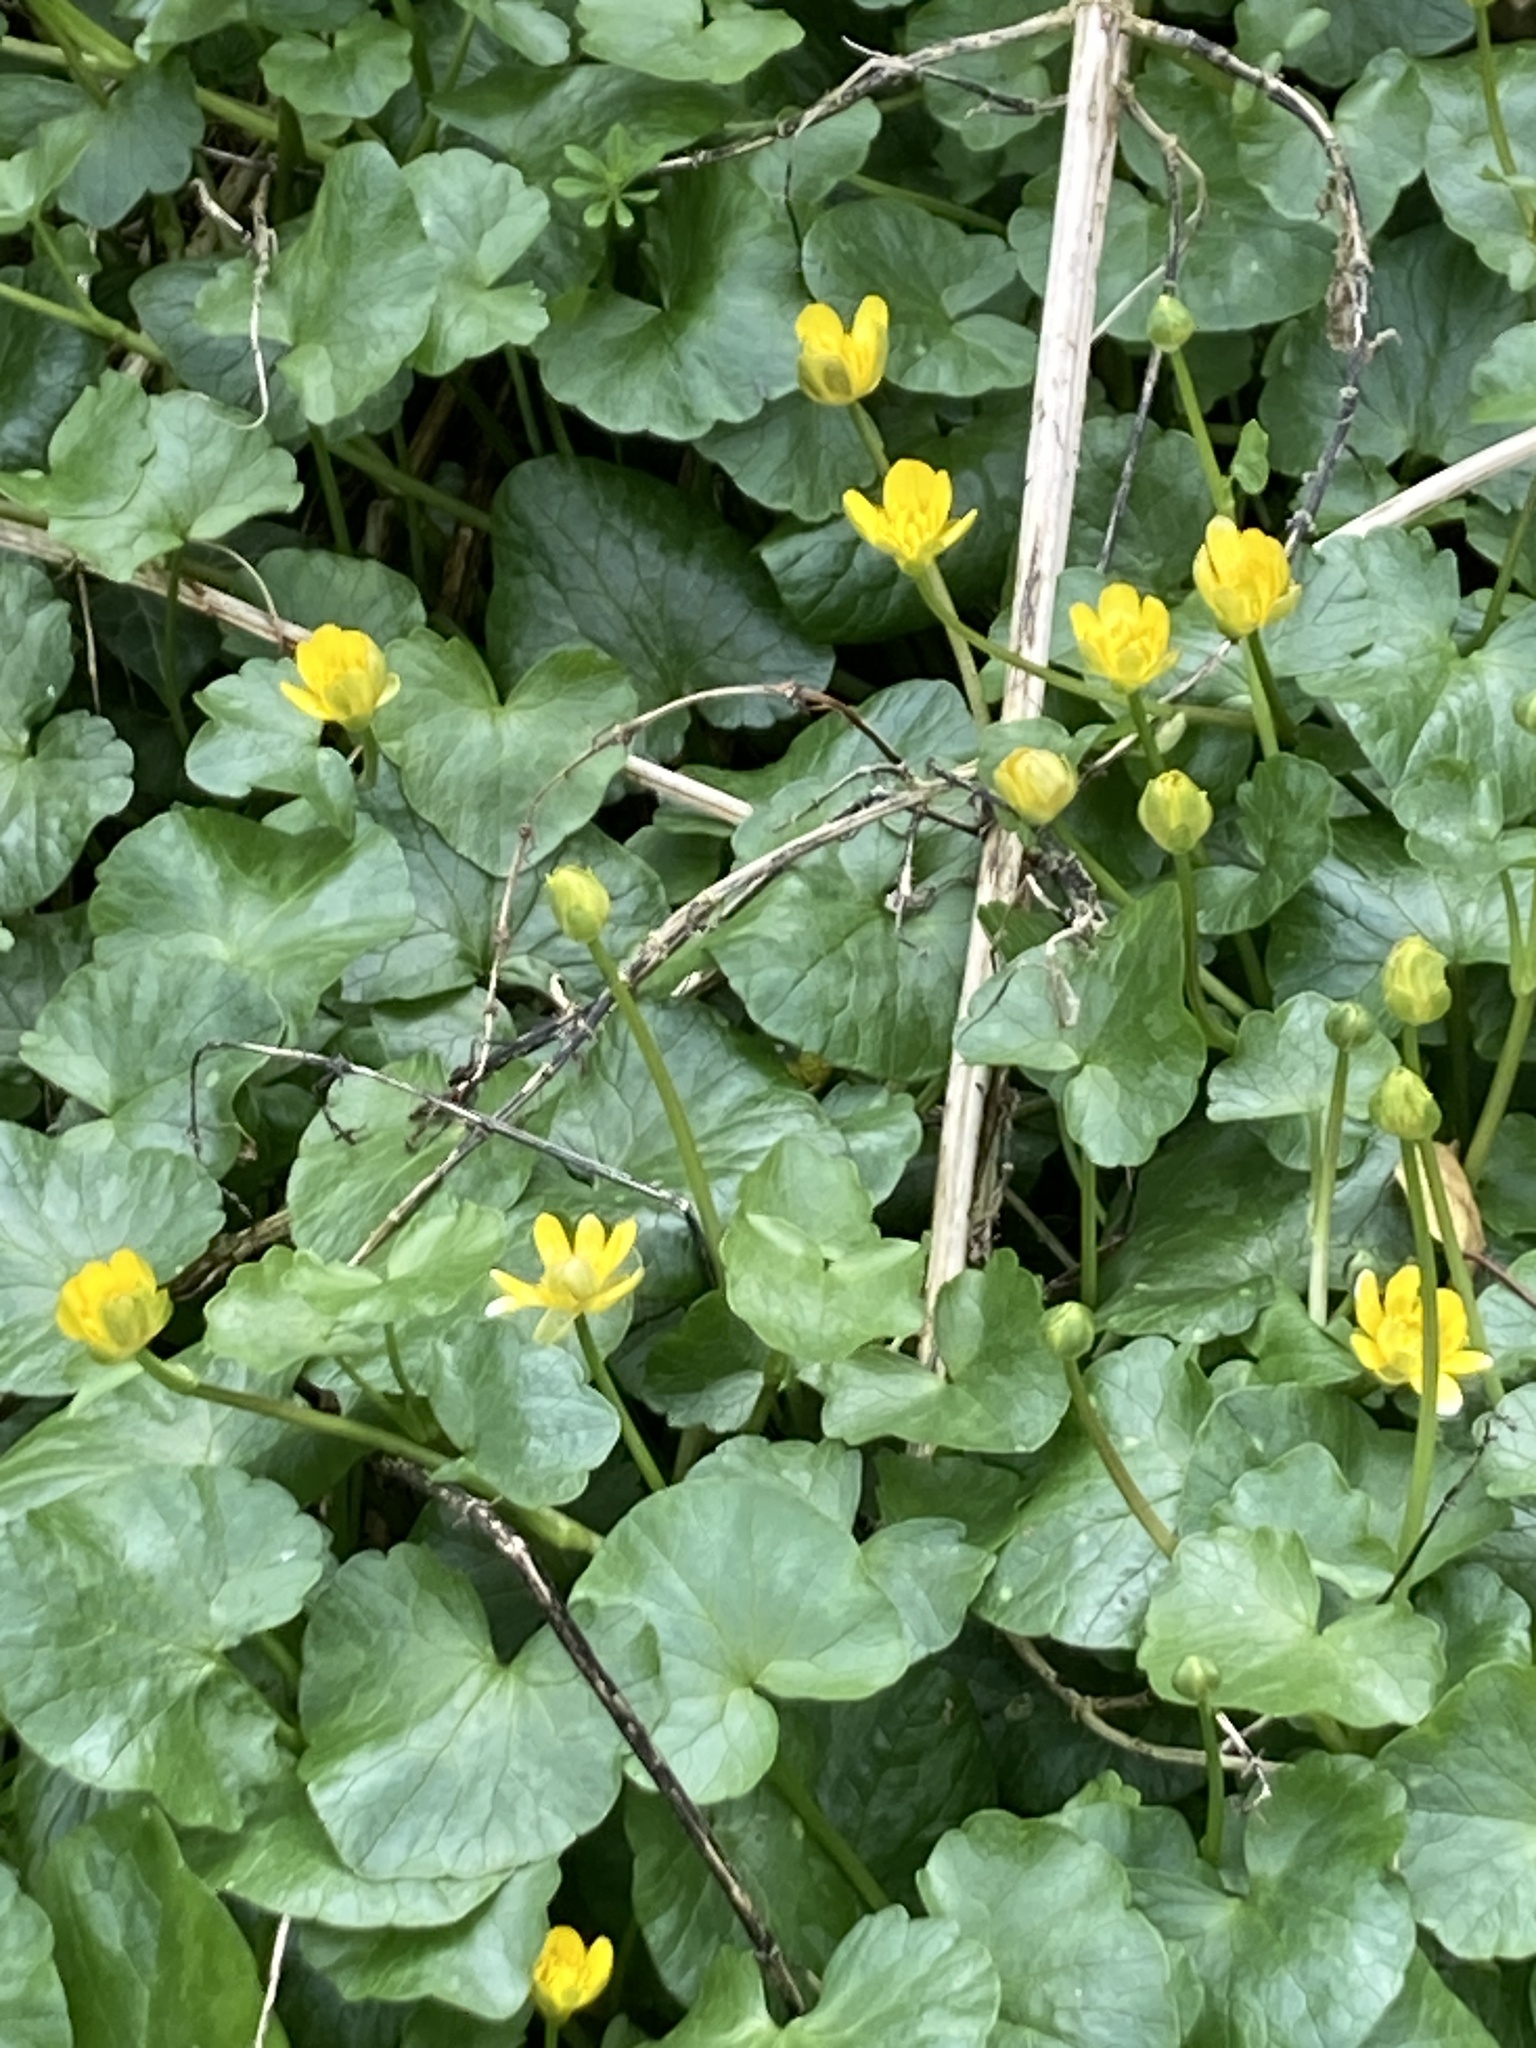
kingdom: Plantae
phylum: Tracheophyta
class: Magnoliopsida
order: Ranunculales
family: Ranunculaceae
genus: Ficaria
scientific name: Ficaria verna
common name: Lesser celandine
